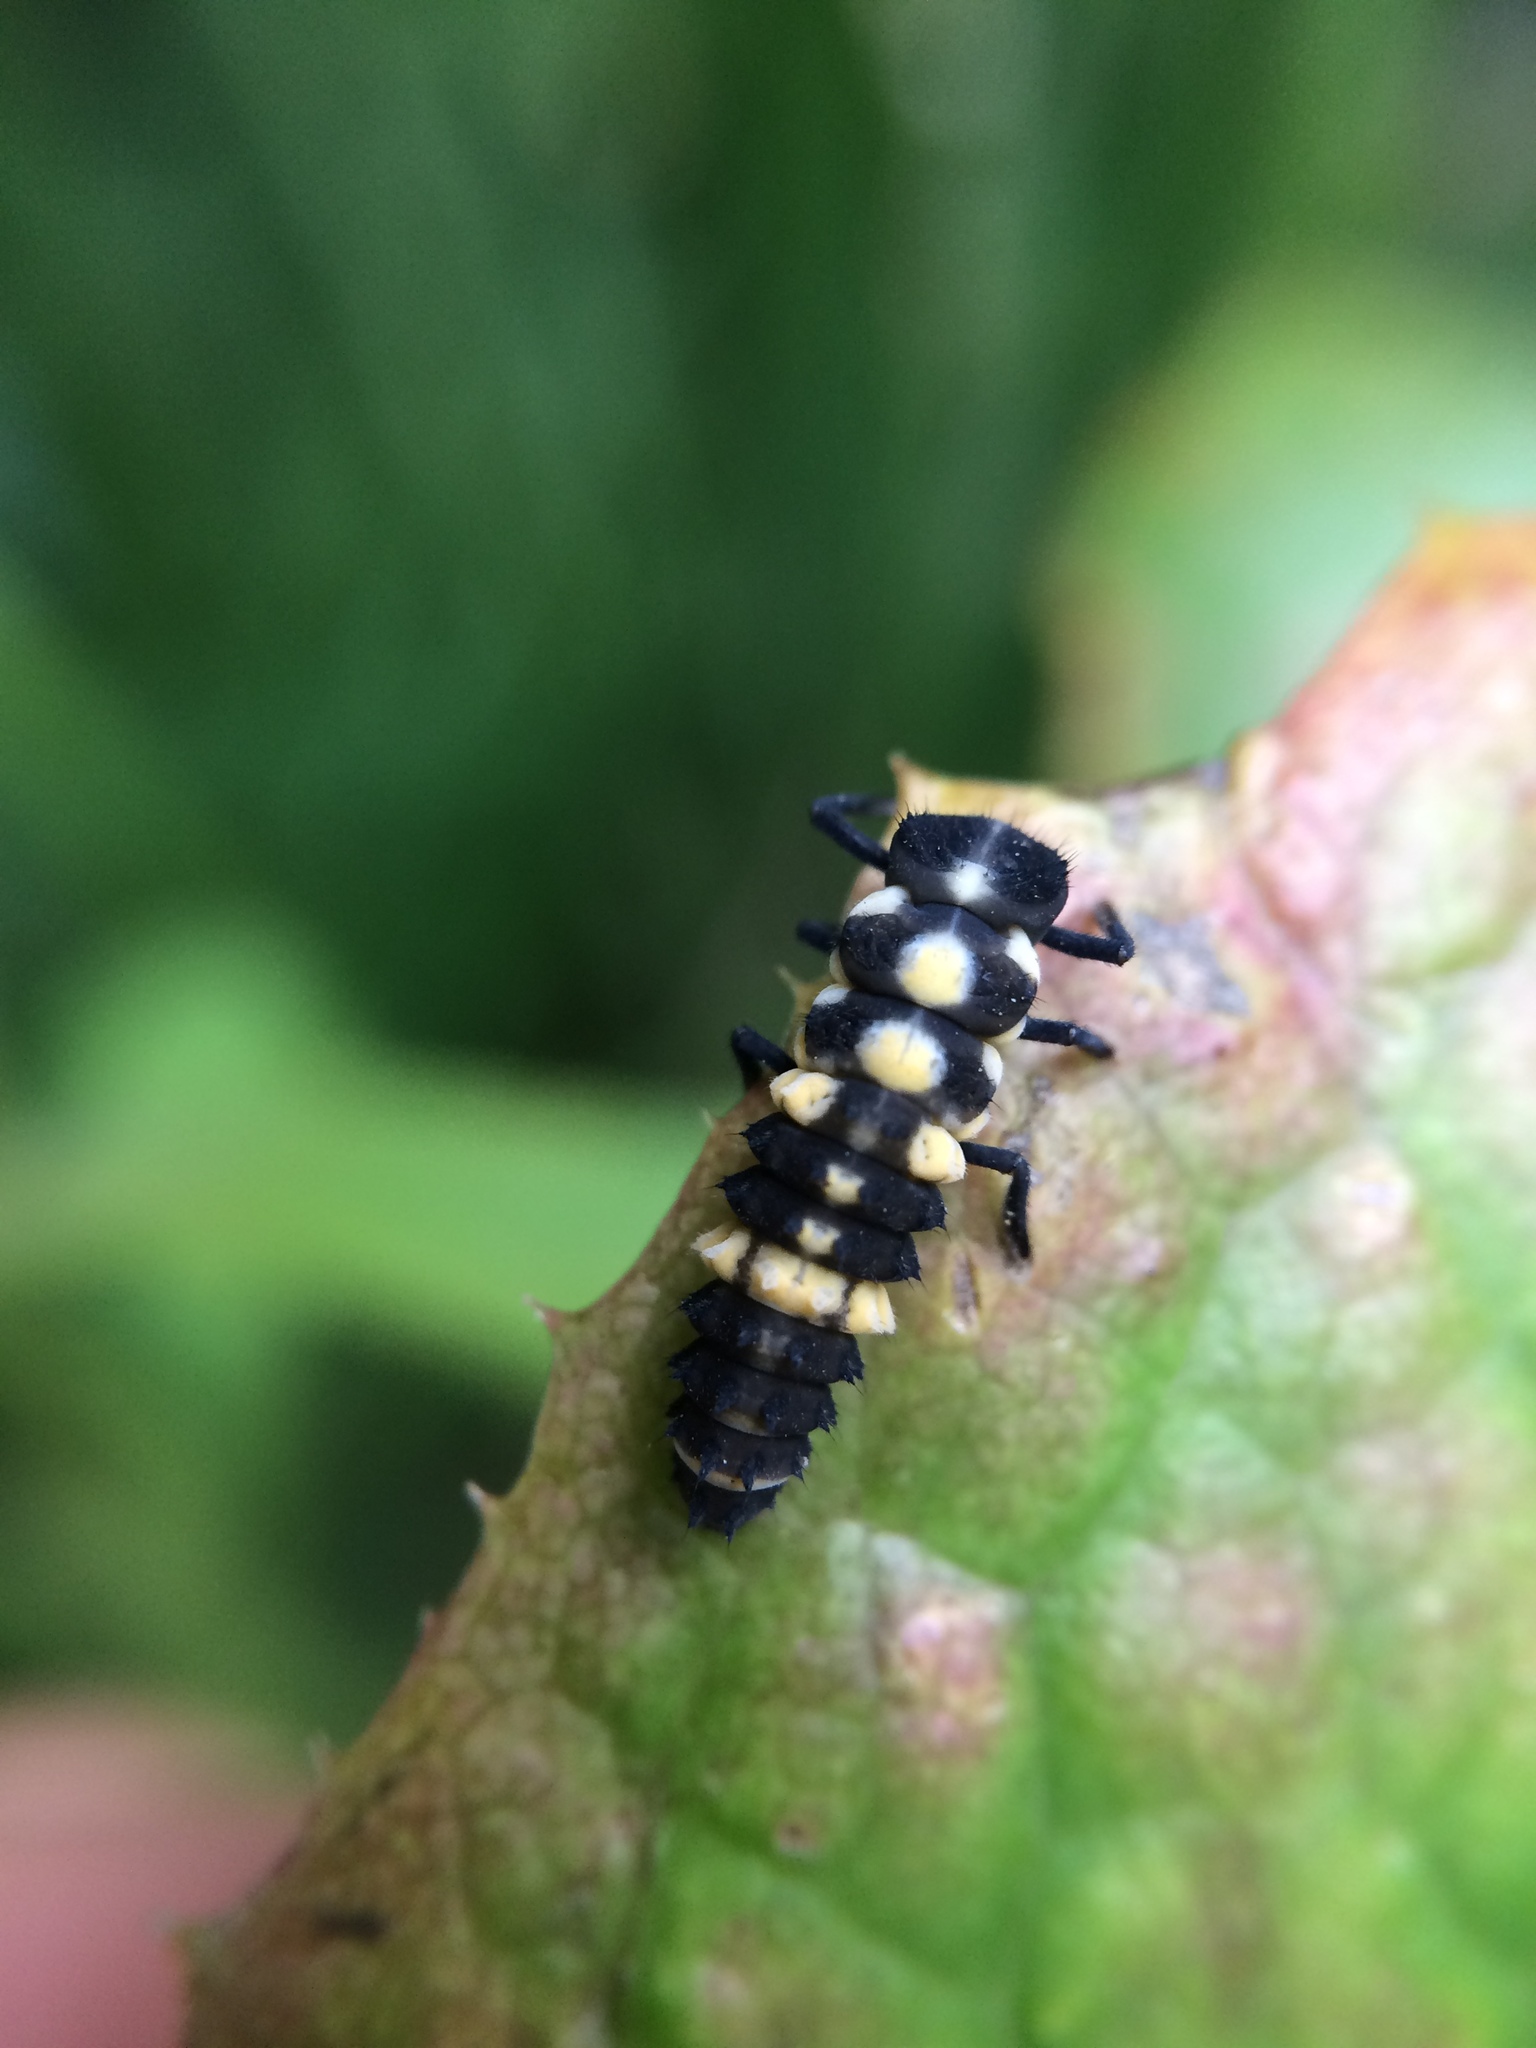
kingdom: Animalia
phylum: Arthropoda
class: Insecta
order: Coleoptera
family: Coccinellidae
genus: Cheilomenes
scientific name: Cheilomenes lunata
